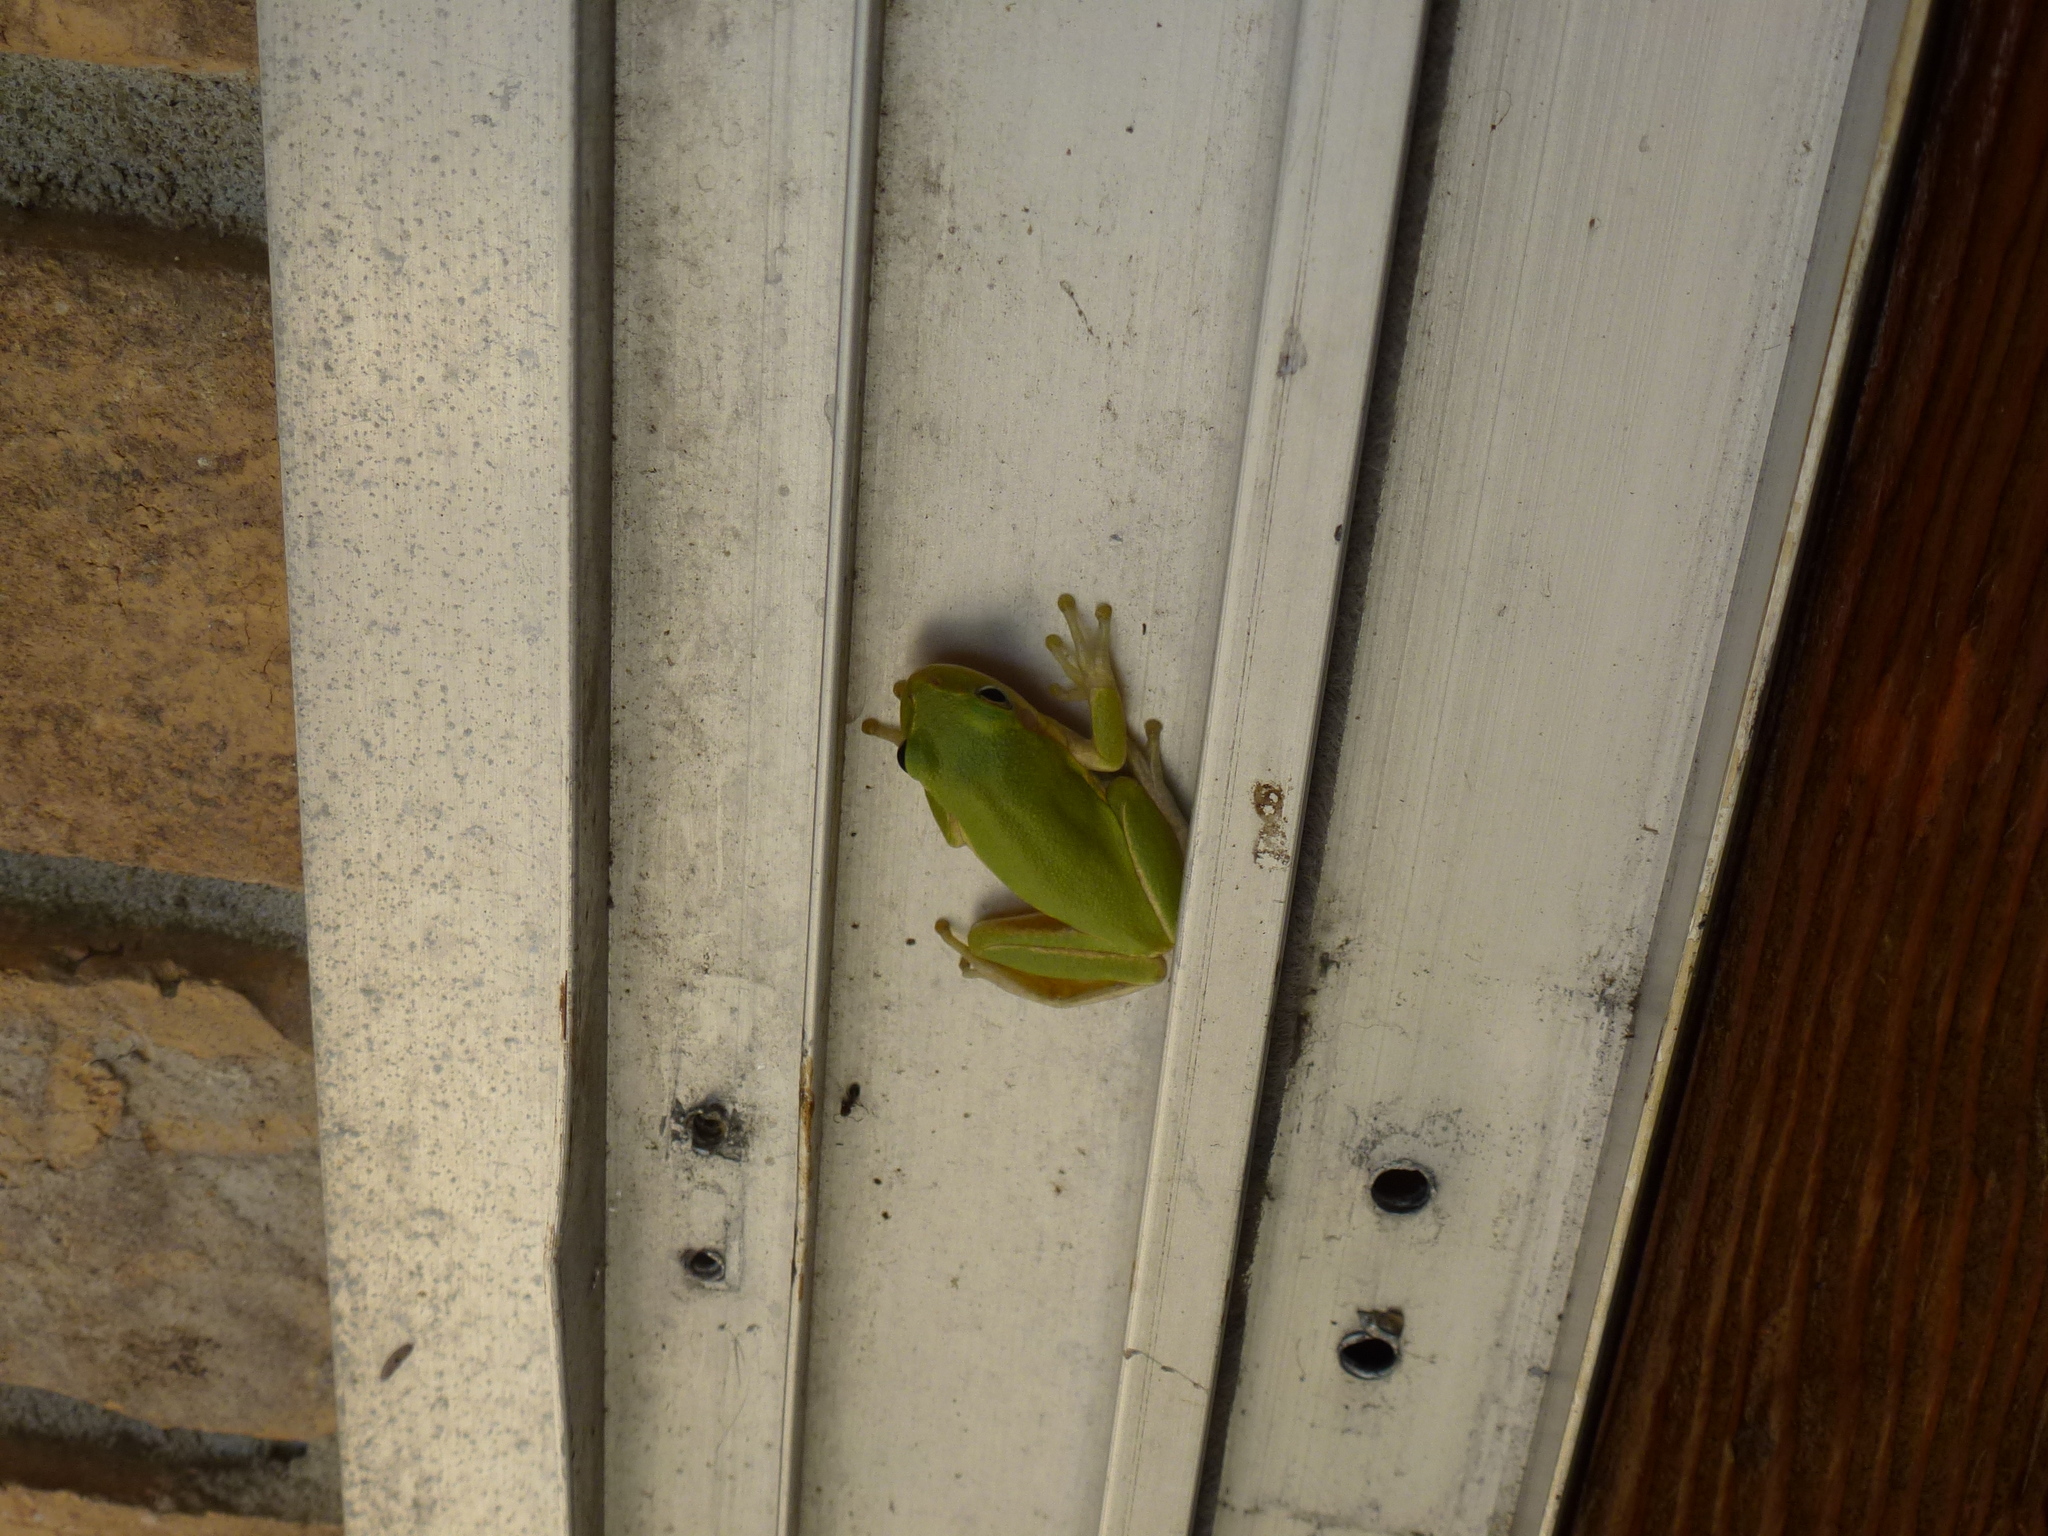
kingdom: Animalia
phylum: Chordata
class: Amphibia
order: Anura
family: Hylidae
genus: Dryophytes
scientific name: Dryophytes squirellus
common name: Squirrel treefrog
